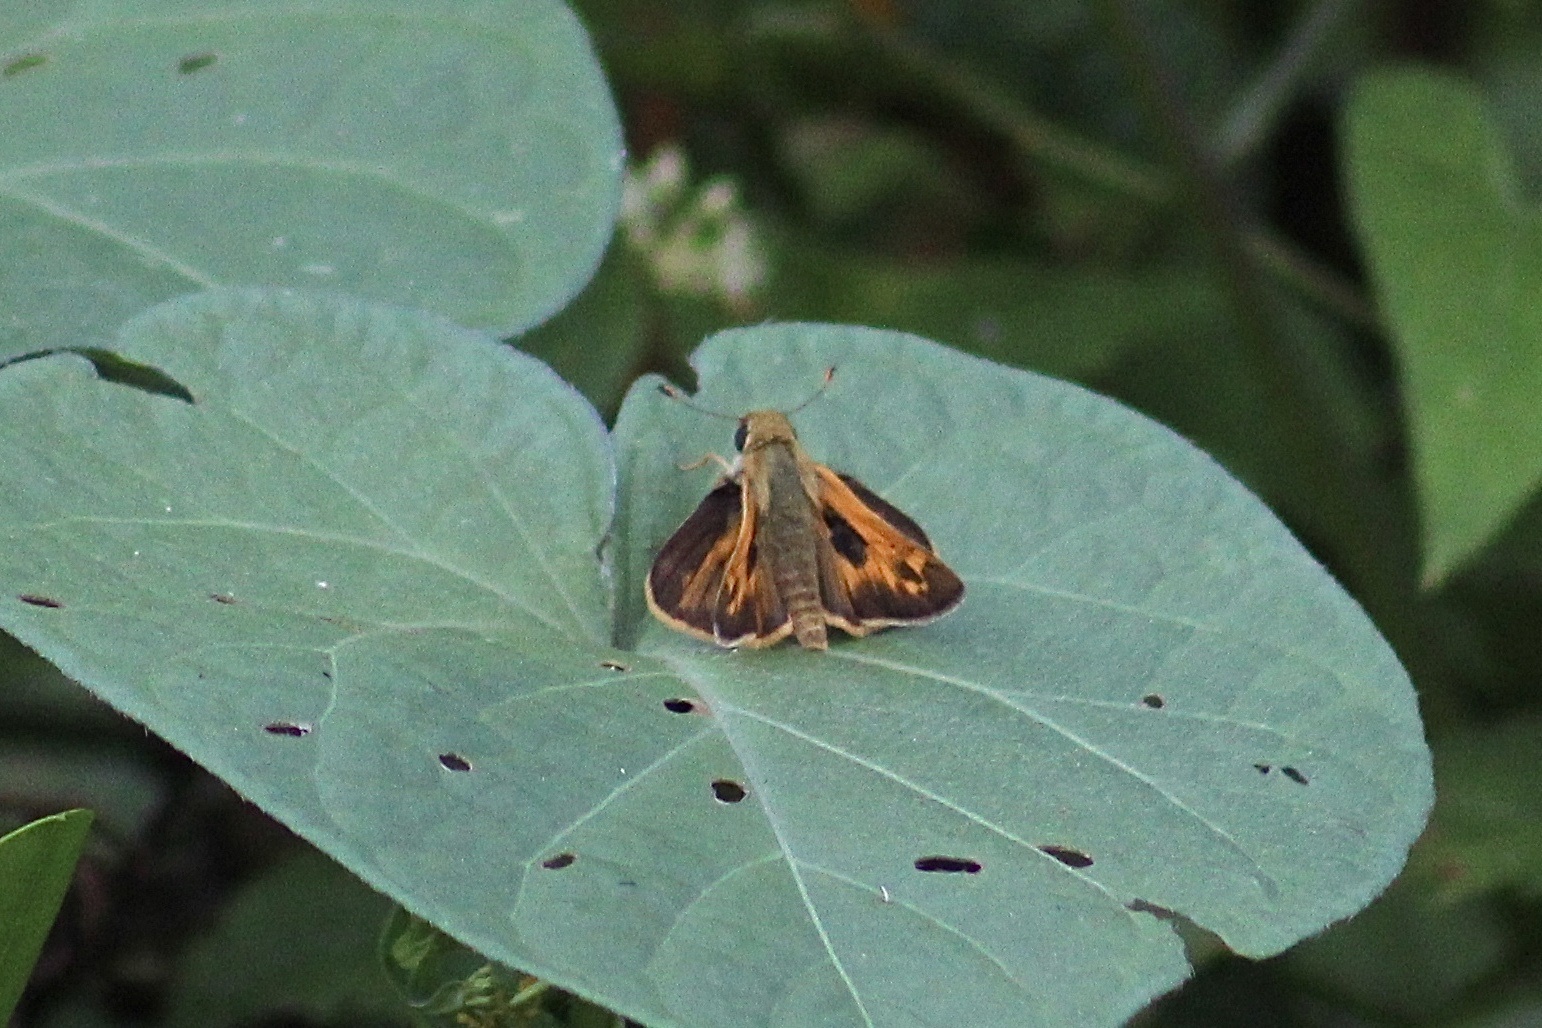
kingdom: Animalia
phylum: Arthropoda
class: Insecta
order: Lepidoptera
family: Hesperiidae
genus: Atalopedes
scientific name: Atalopedes
